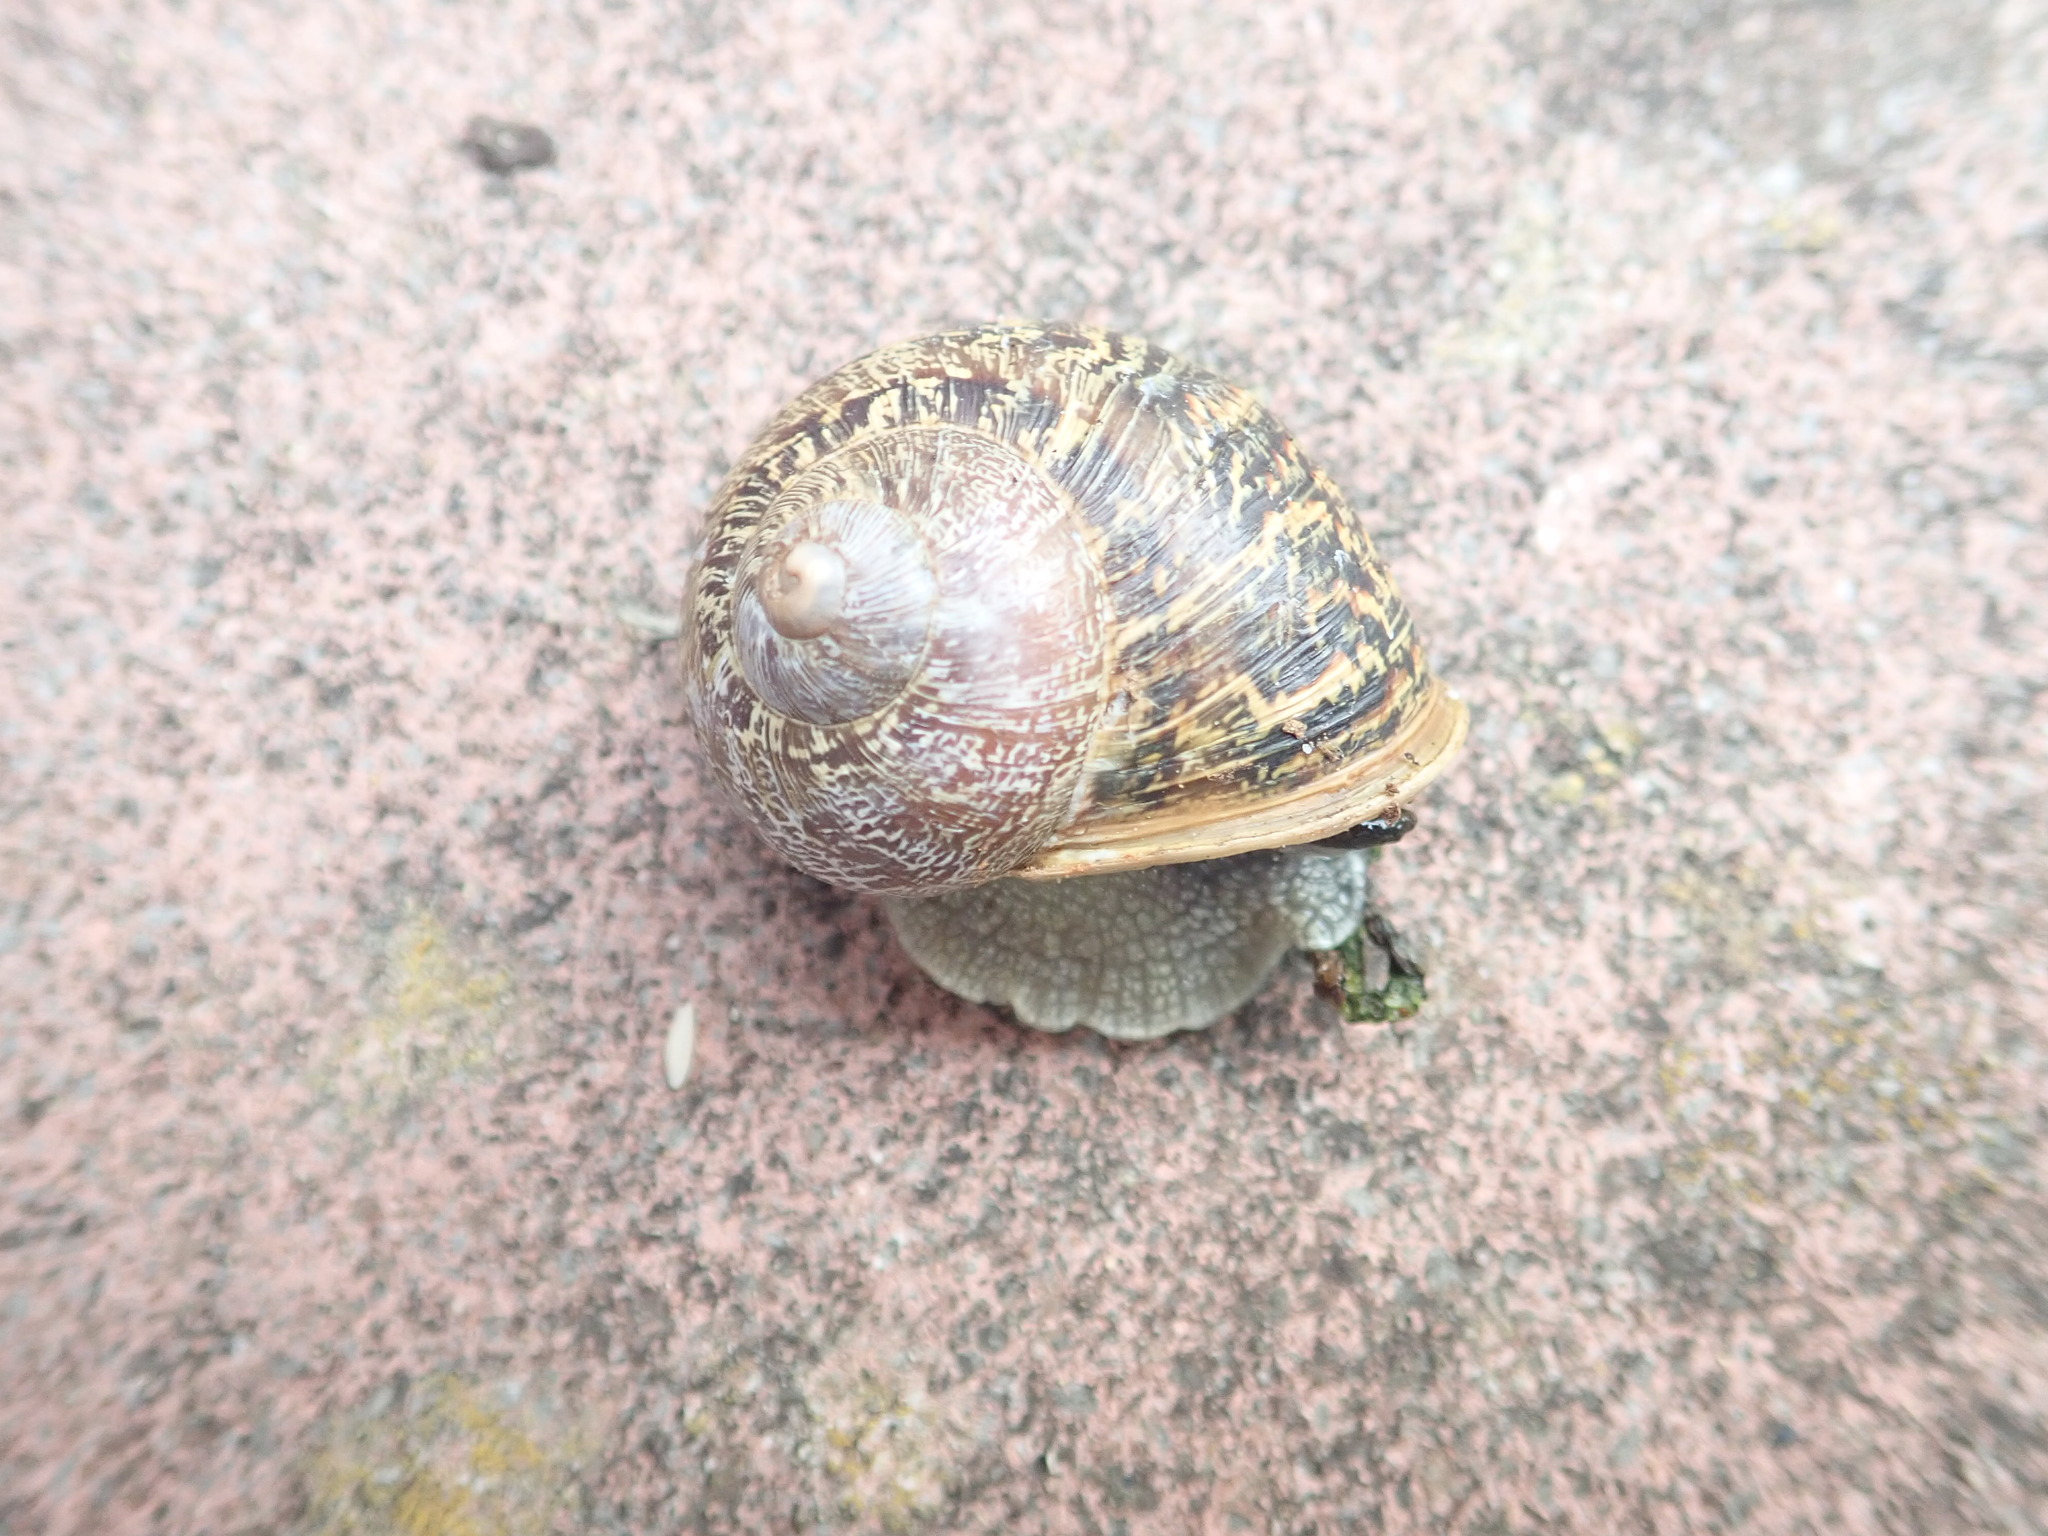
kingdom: Animalia
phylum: Mollusca
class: Gastropoda
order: Stylommatophora
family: Helicidae
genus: Cornu
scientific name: Cornu aspersum
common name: Brown garden snail
